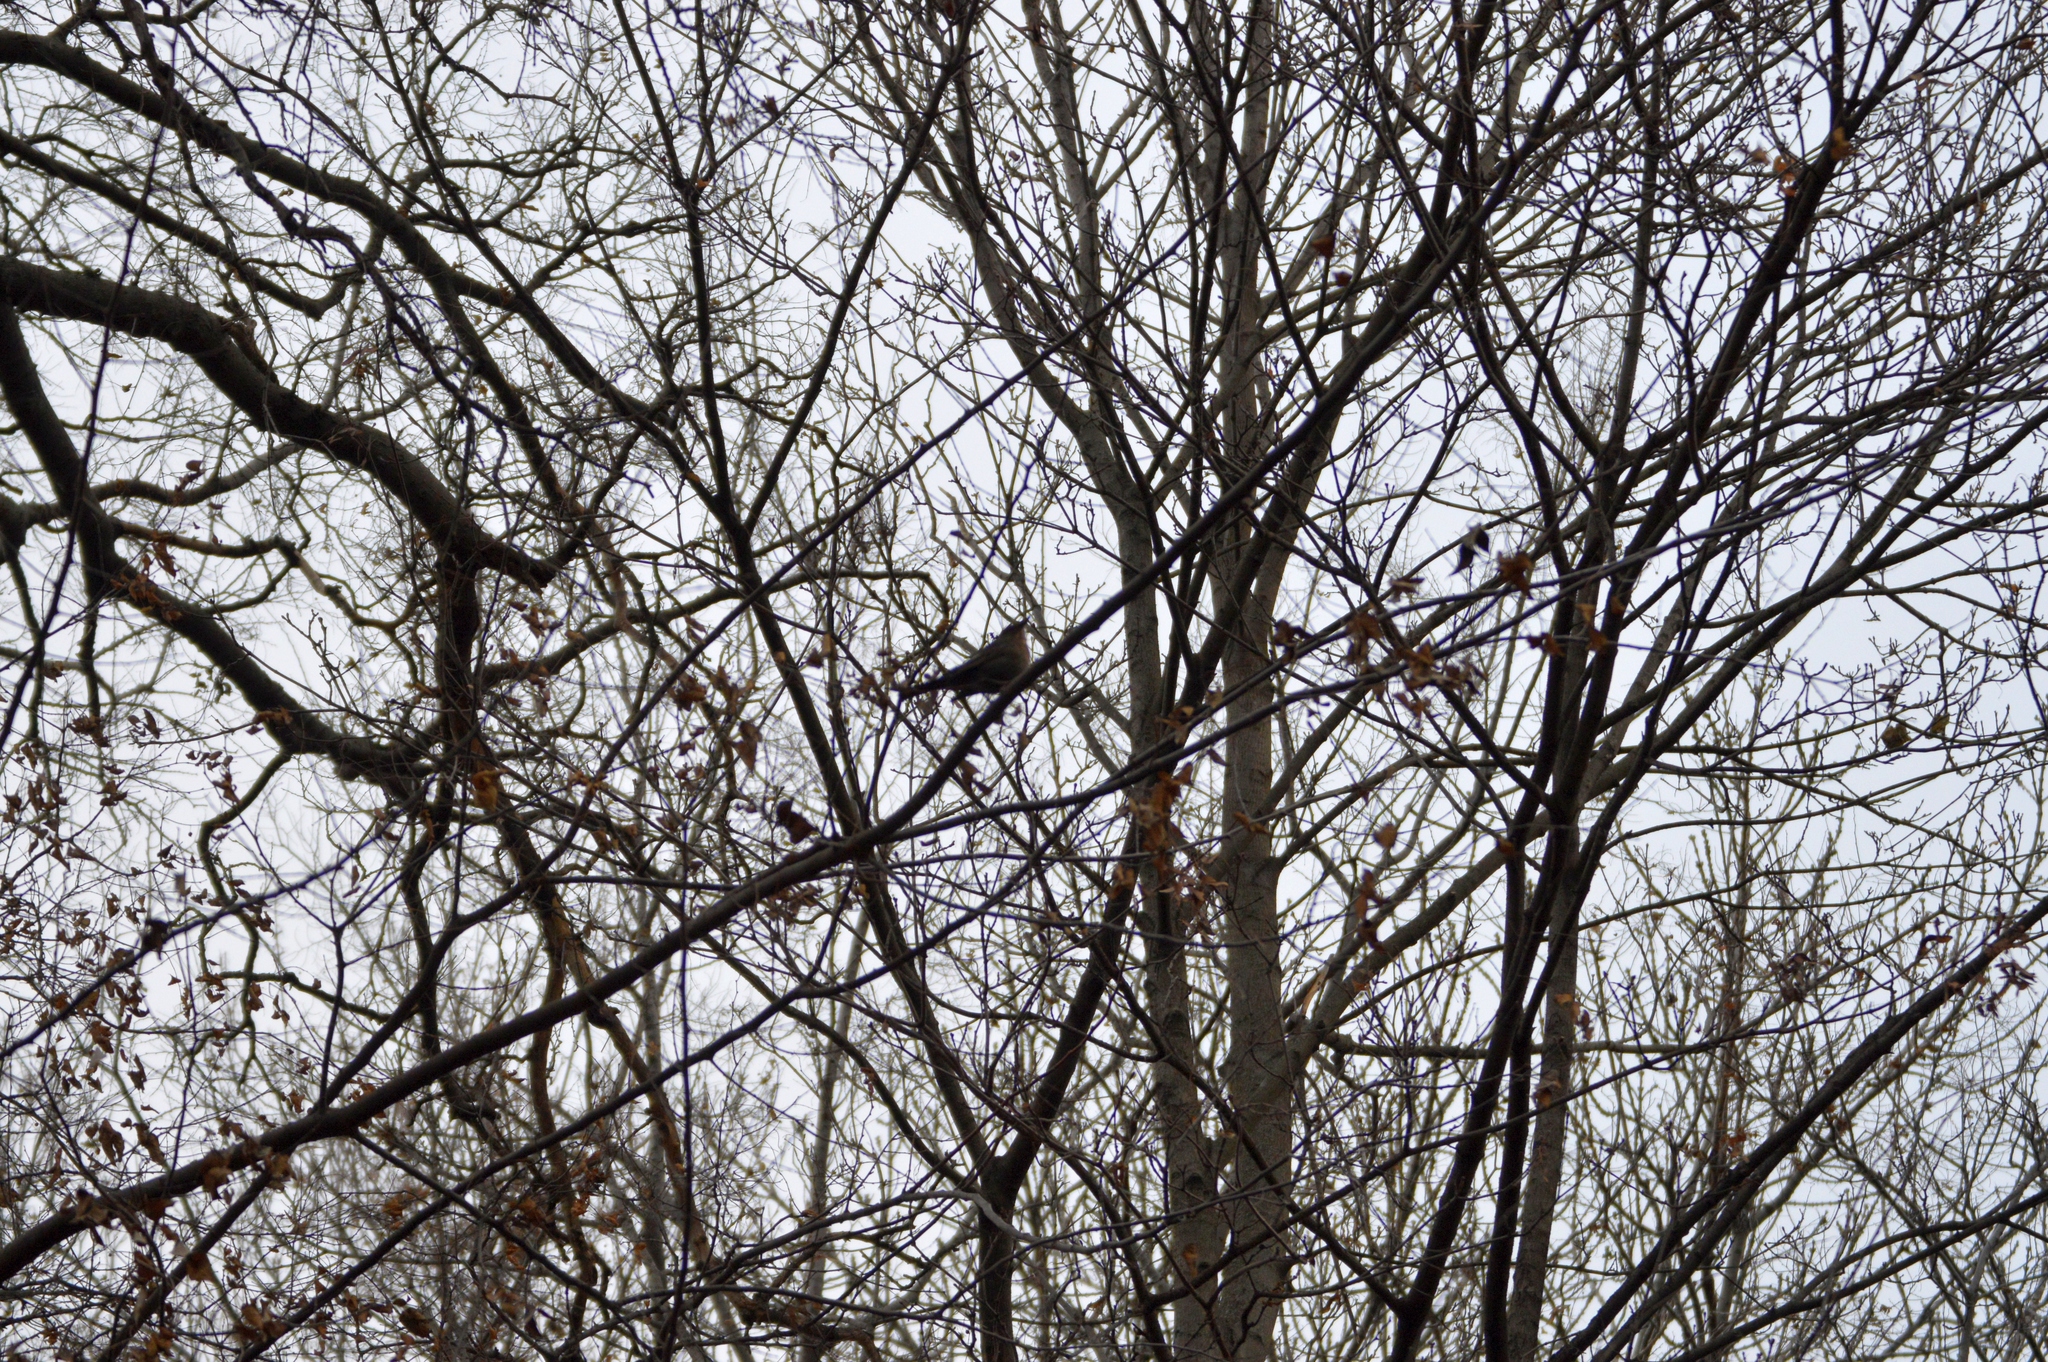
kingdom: Animalia
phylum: Chordata
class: Aves
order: Passeriformes
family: Turdidae
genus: Turdus
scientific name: Turdus merula
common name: Common blackbird
